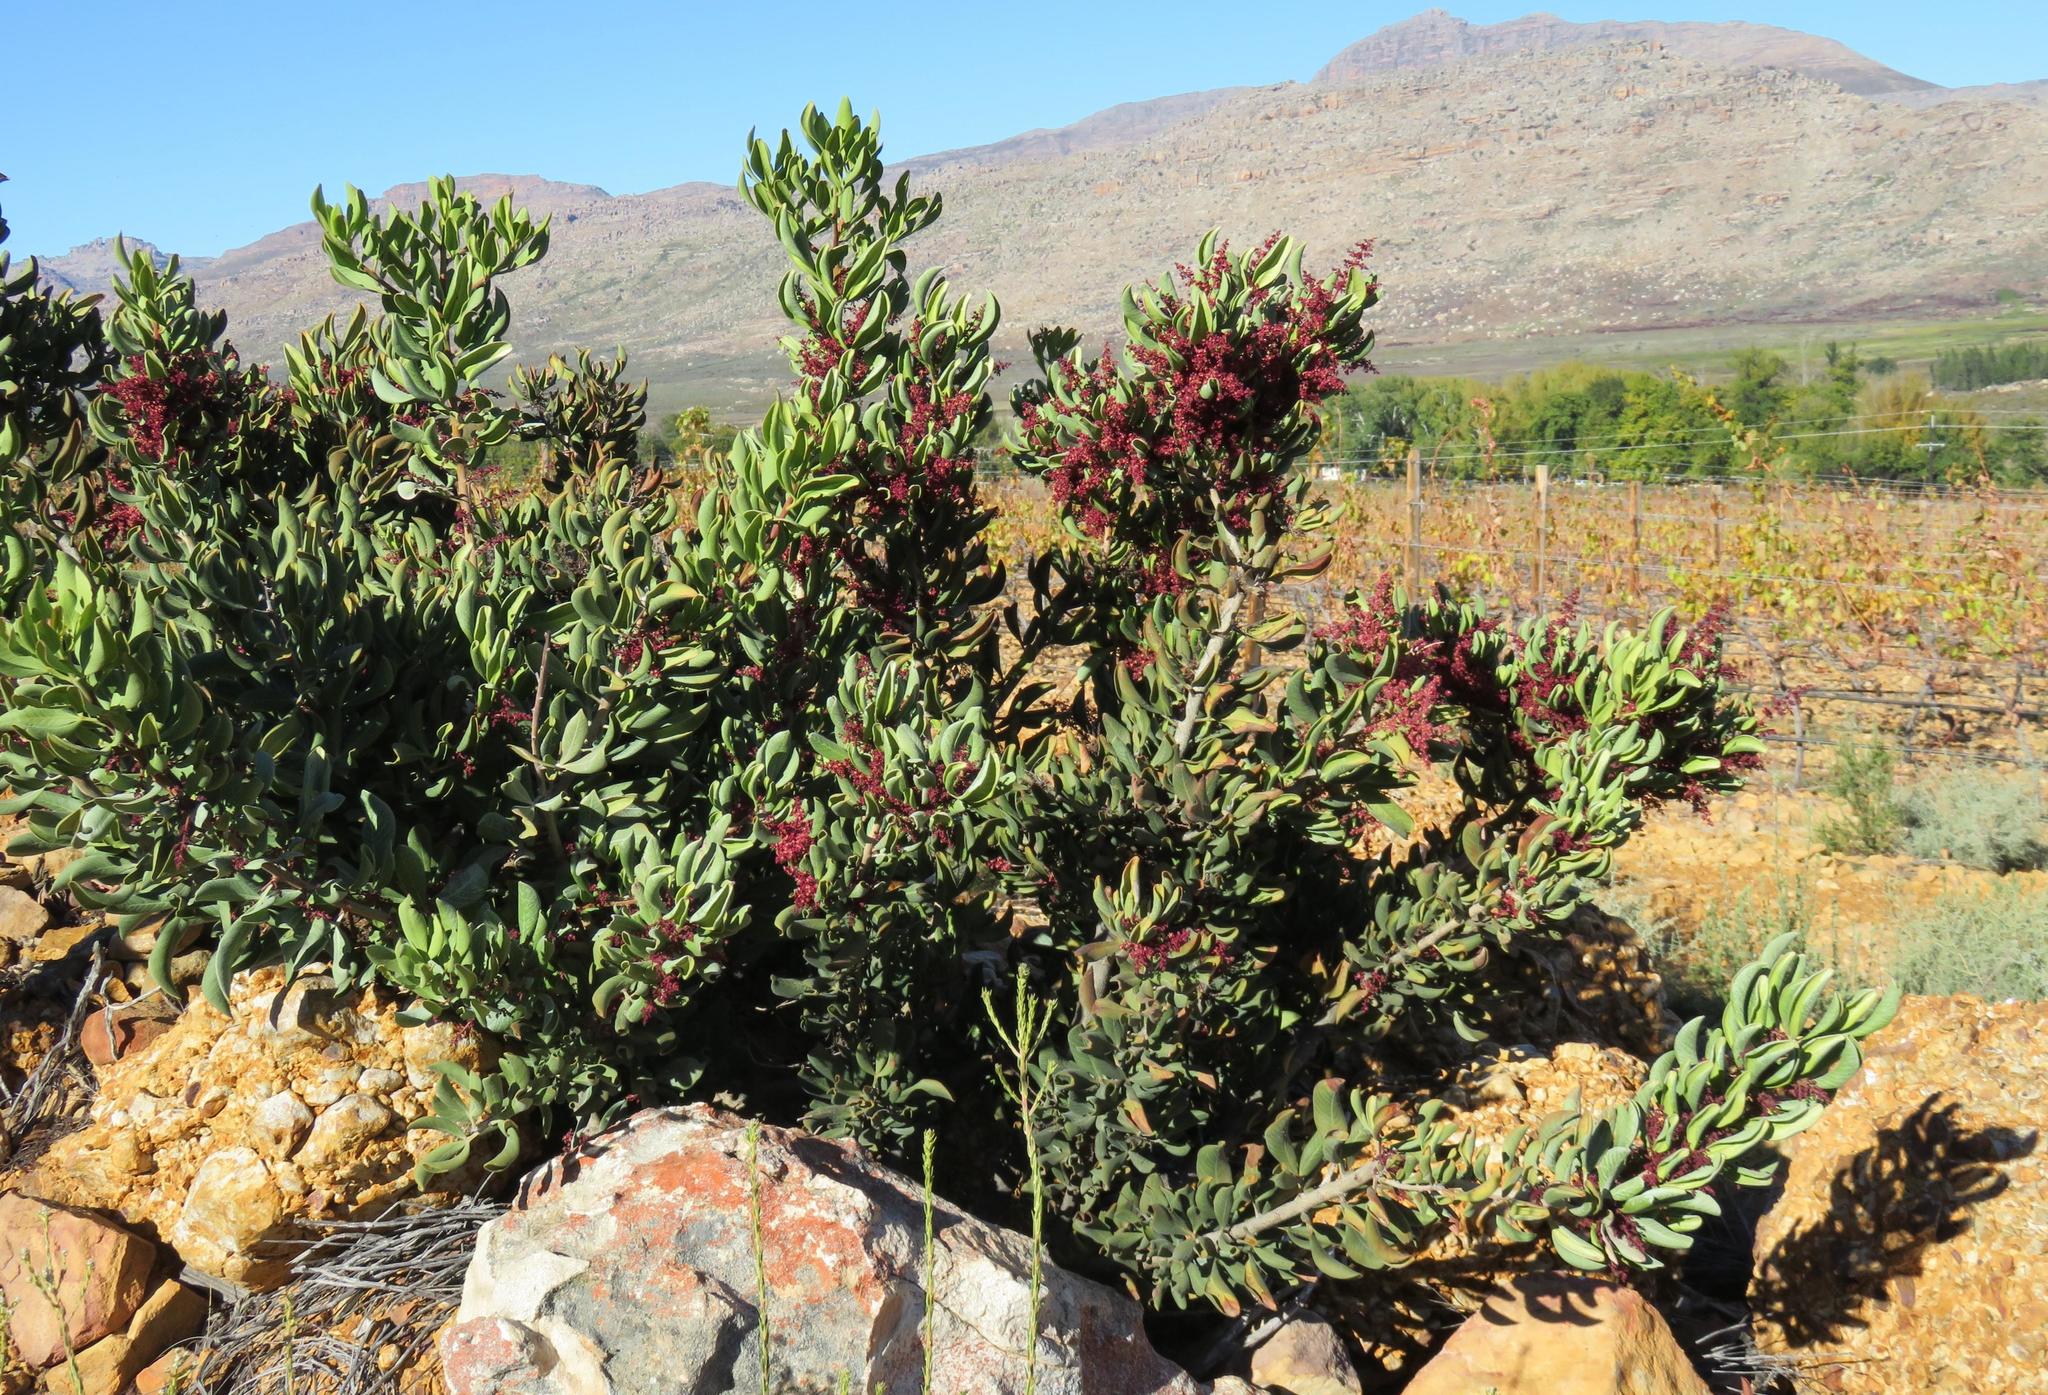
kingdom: Plantae
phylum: Tracheophyta
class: Magnoliopsida
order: Sapindales
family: Anacardiaceae
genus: Searsia
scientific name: Searsia scytophylla
